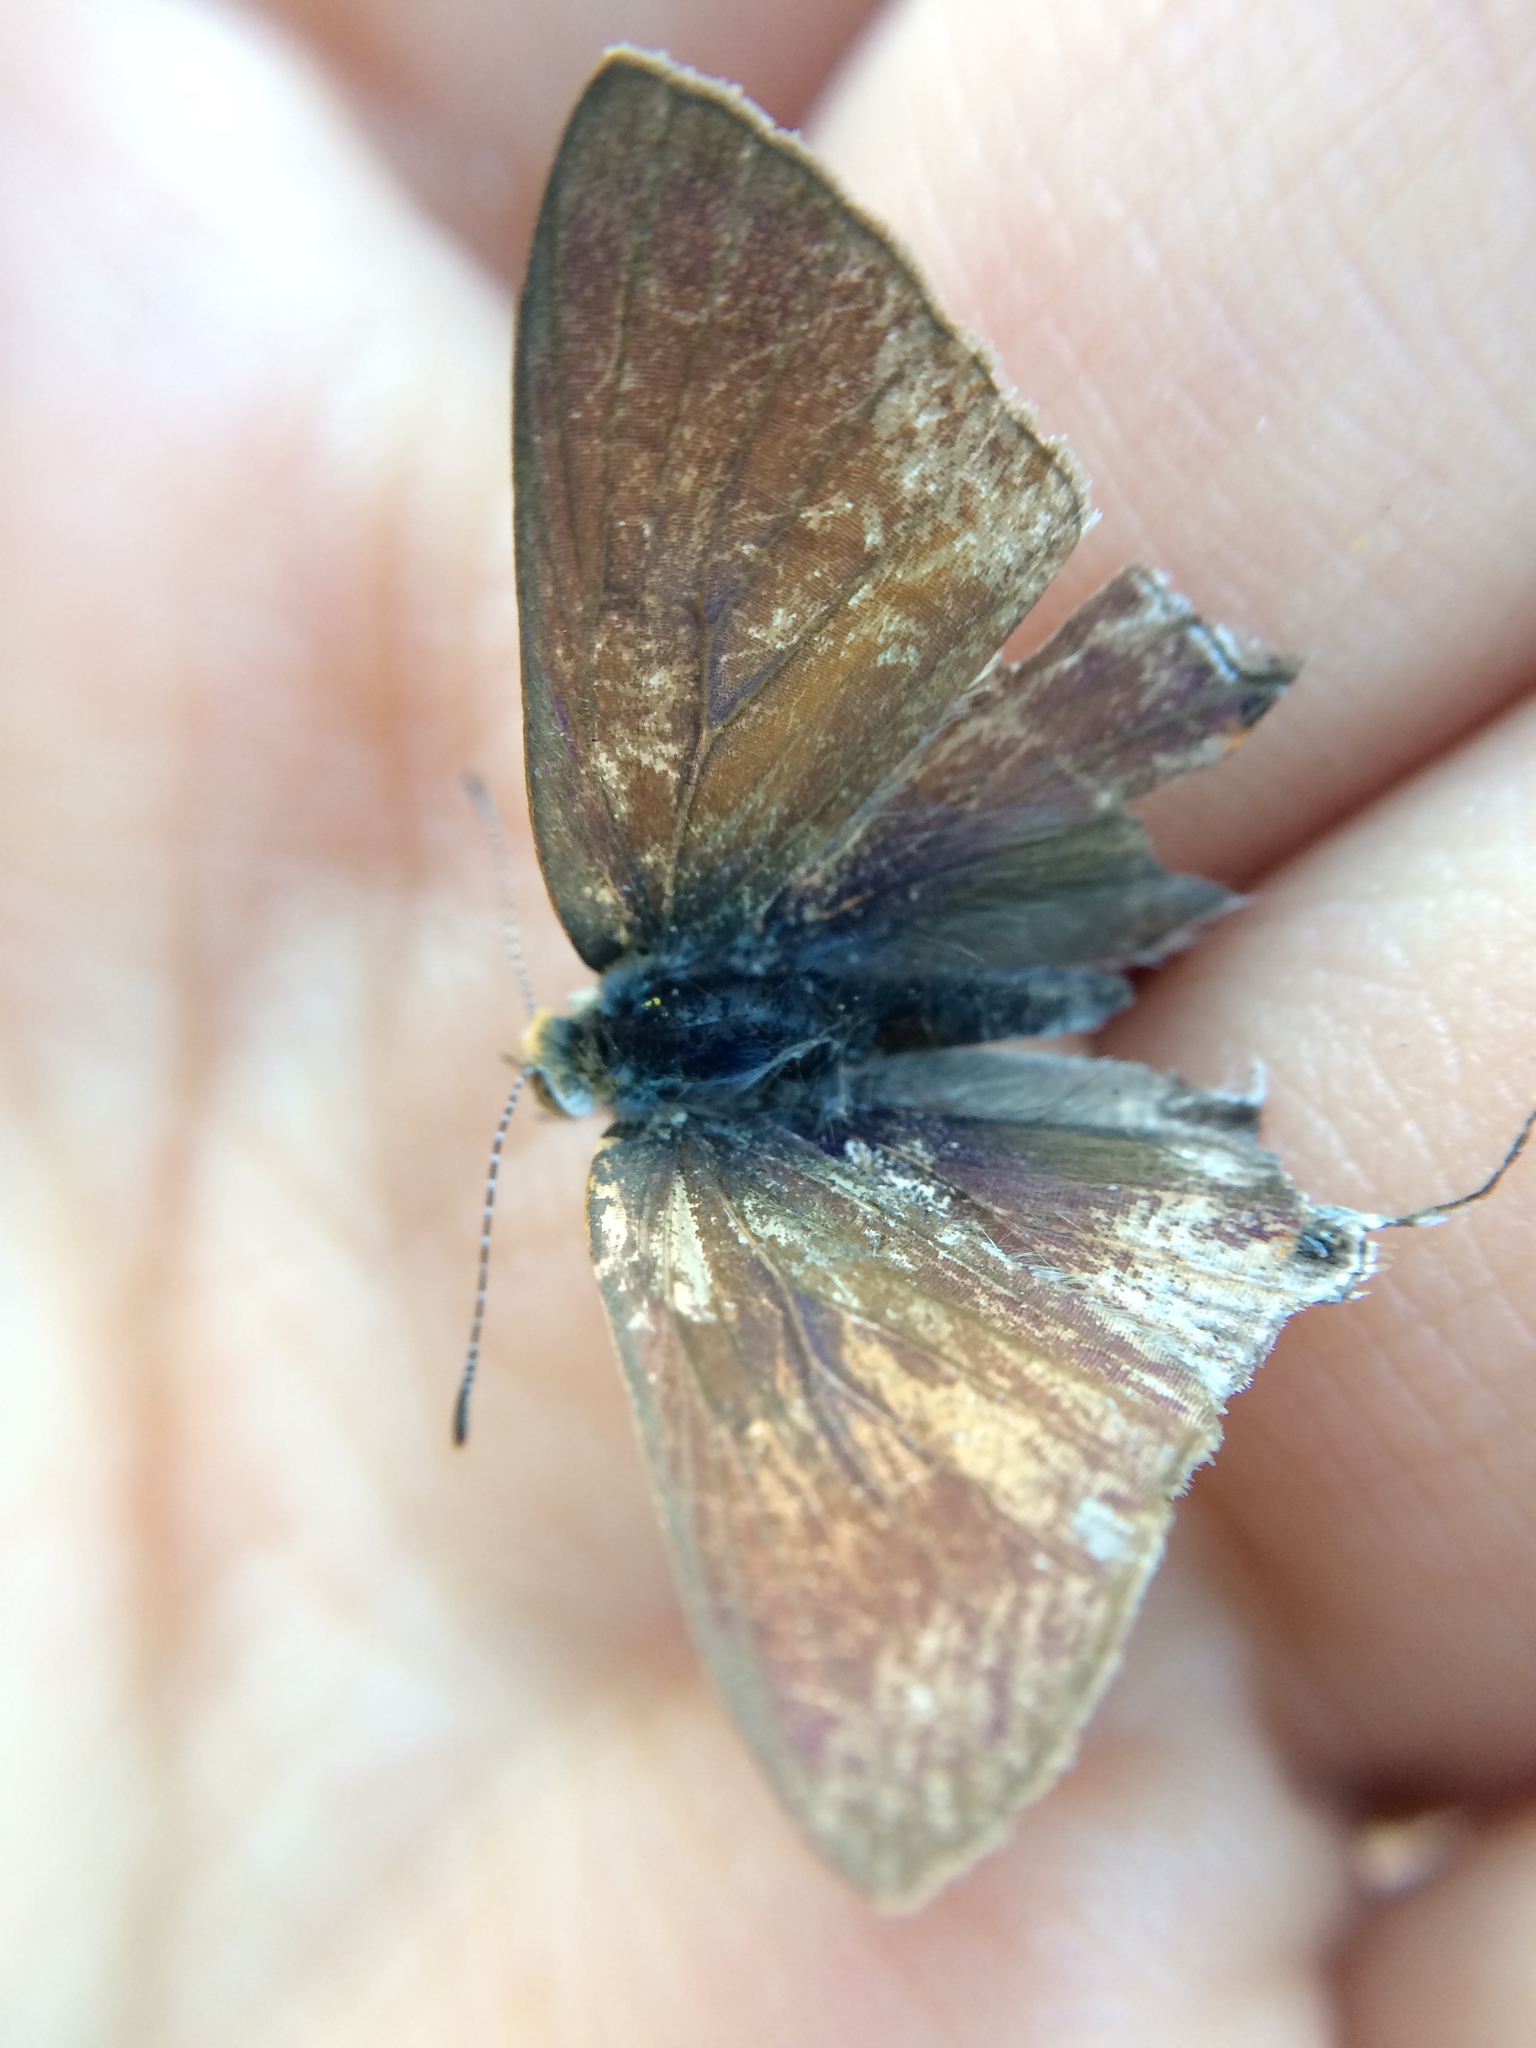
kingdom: Animalia
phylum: Arthropoda
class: Insecta
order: Lepidoptera
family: Lycaenidae
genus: Hypolycaena
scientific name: Hypolycaena philippus
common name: Common hairstreak
